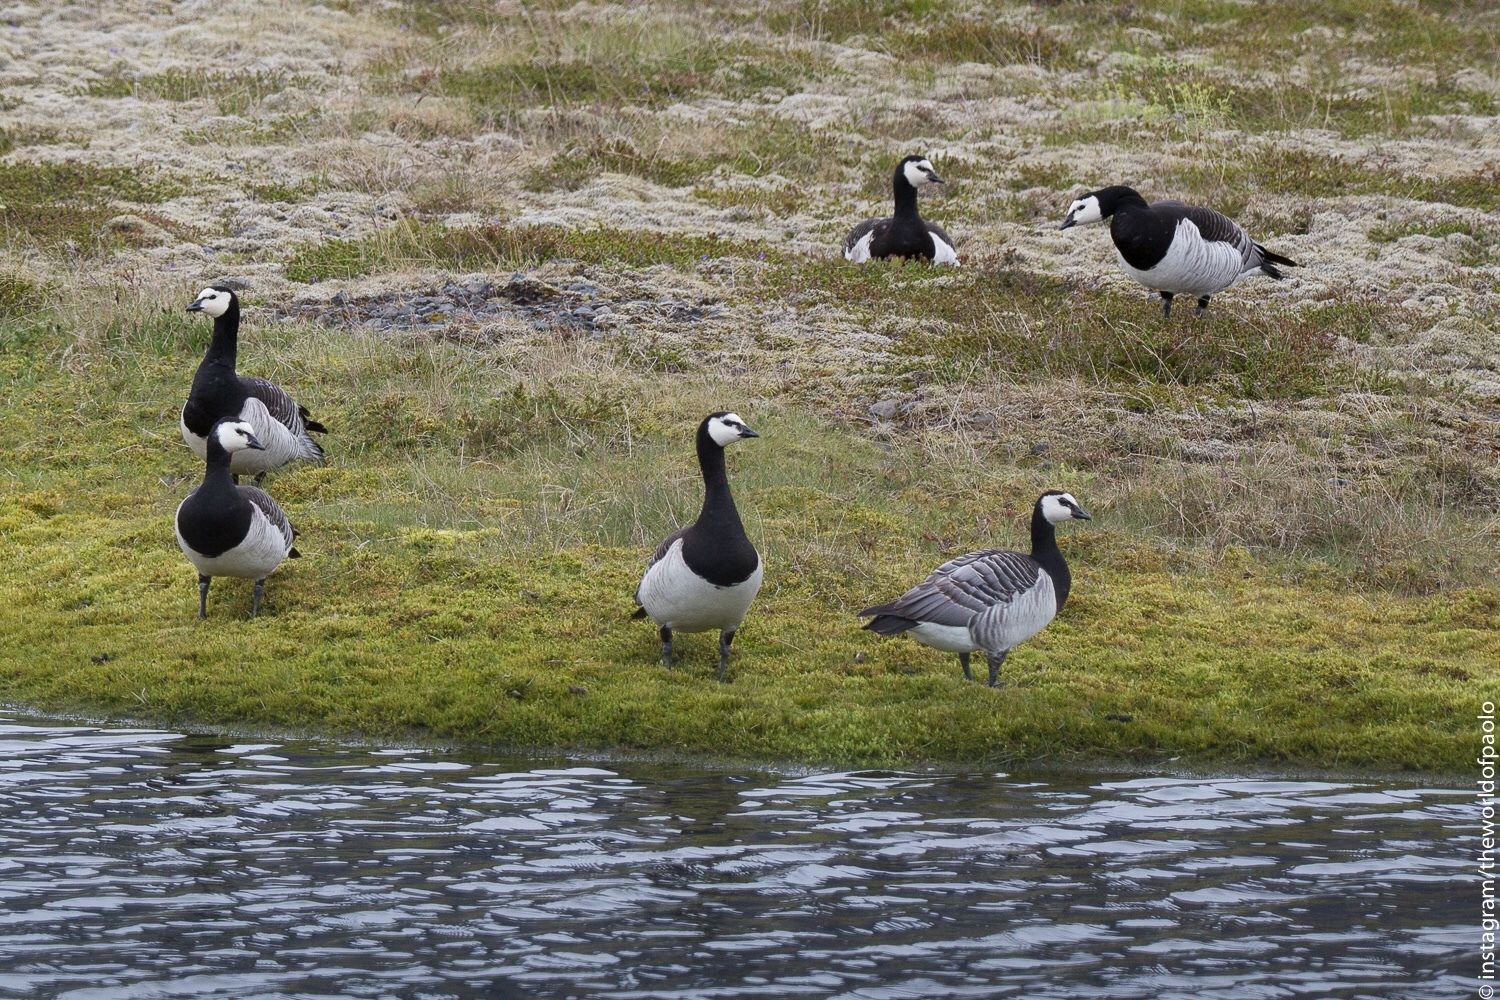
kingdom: Animalia
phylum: Chordata
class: Aves
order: Anseriformes
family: Anatidae
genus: Branta
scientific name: Branta leucopsis
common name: Barnacle goose
